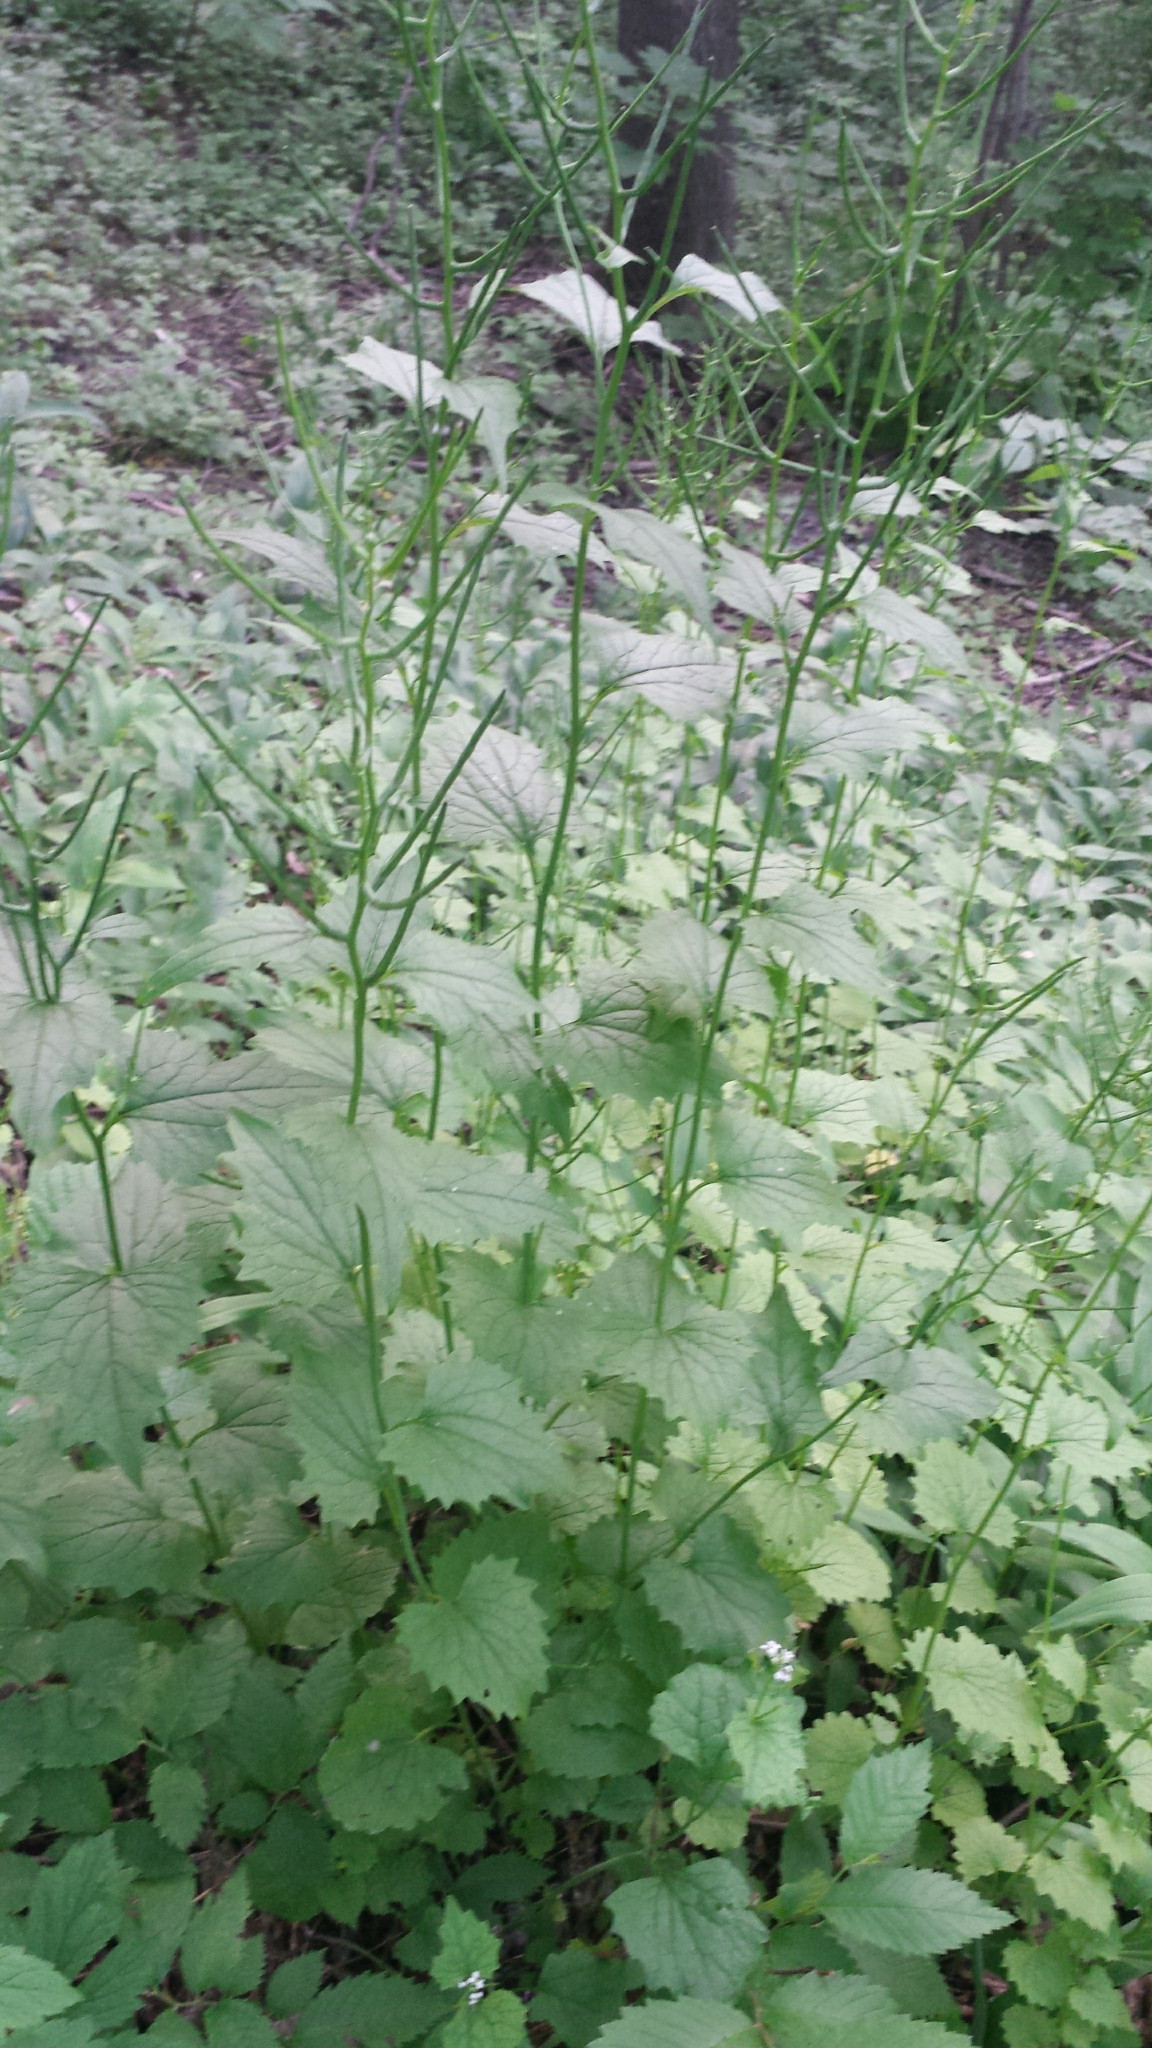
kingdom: Plantae
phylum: Tracheophyta
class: Magnoliopsida
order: Brassicales
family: Brassicaceae
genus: Alliaria
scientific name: Alliaria petiolata
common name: Garlic mustard
